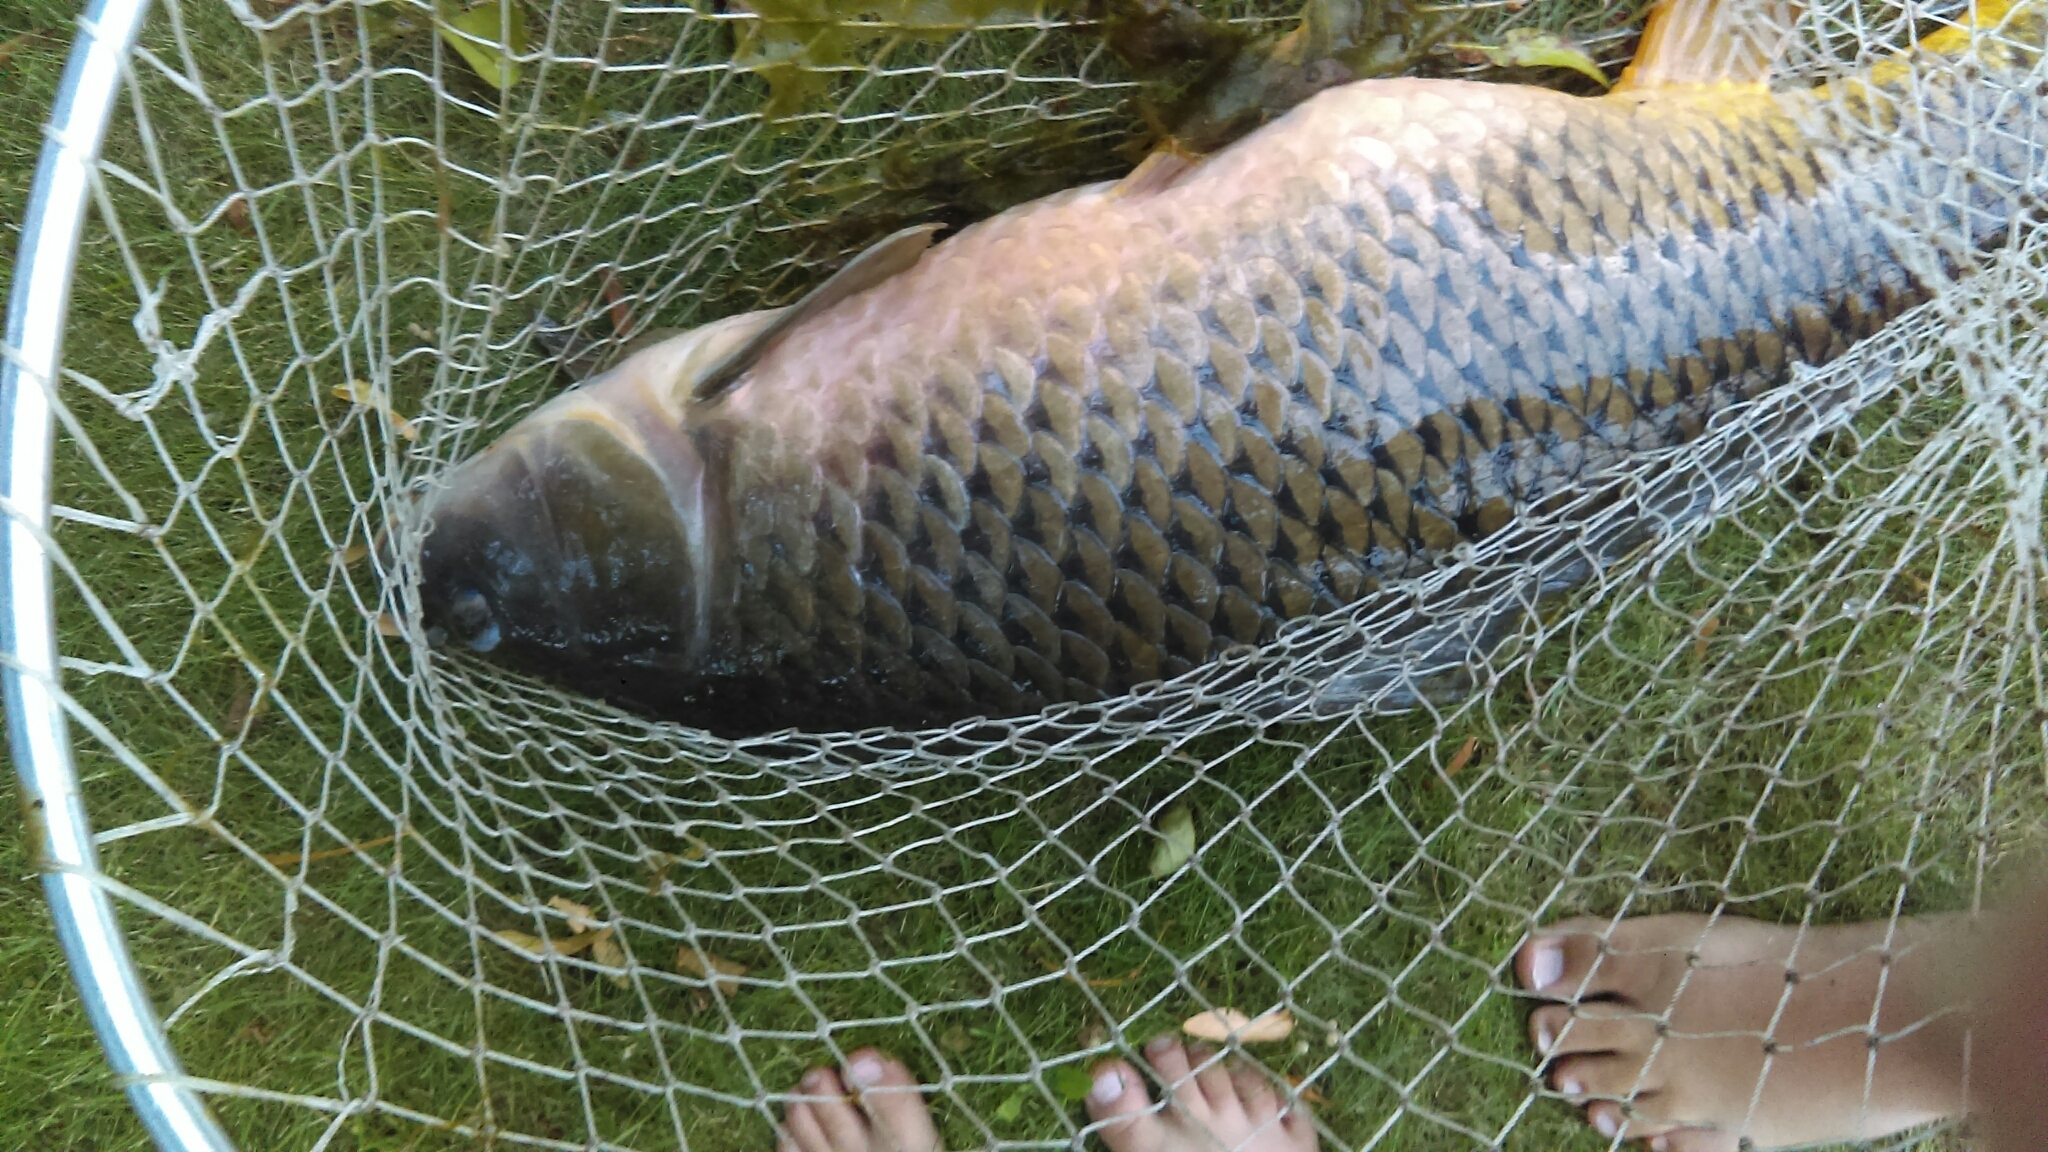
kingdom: Animalia
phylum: Chordata
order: Cypriniformes
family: Cyprinidae
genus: Cyprinus
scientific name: Cyprinus carpio
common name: Common carp
